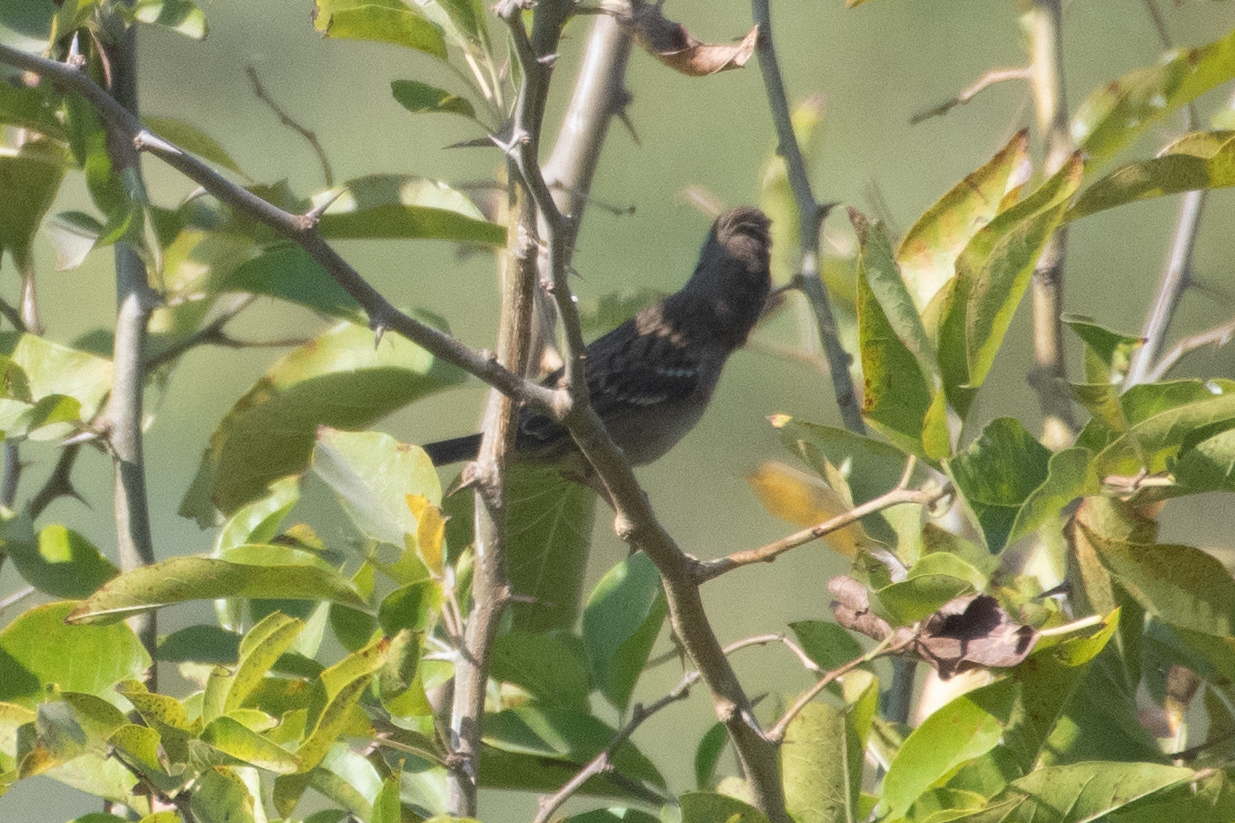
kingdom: Animalia
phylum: Chordata
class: Aves
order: Passeriformes
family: Passerellidae
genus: Zonotrichia
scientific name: Zonotrichia atricapilla
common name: Golden-crowned sparrow
